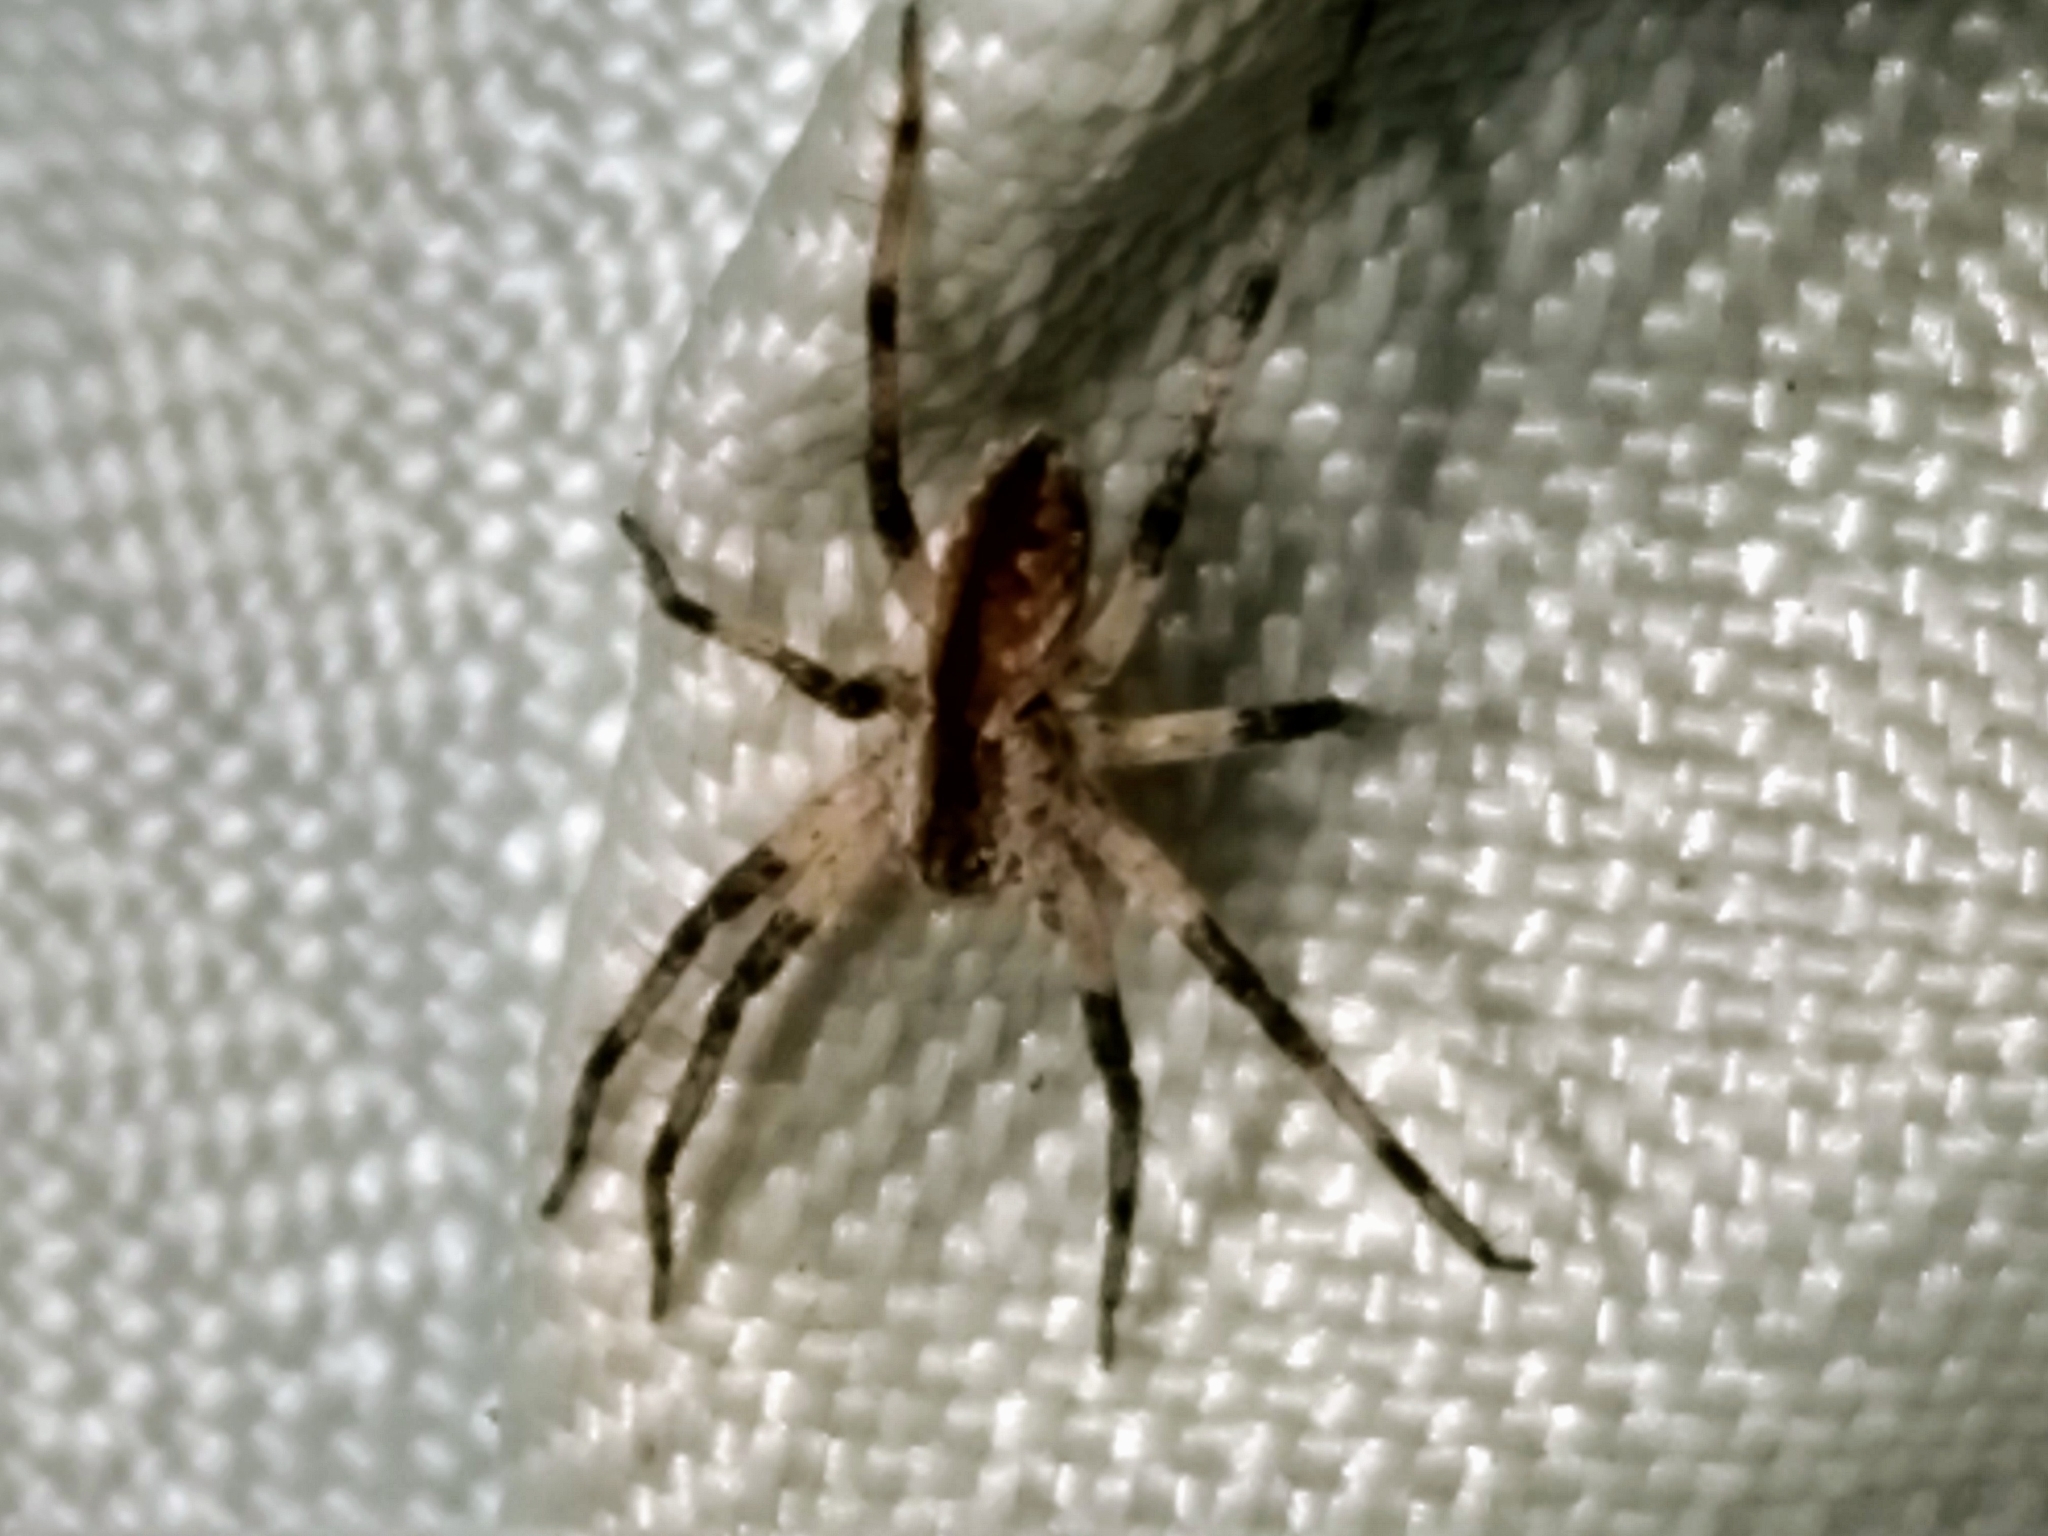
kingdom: Animalia
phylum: Arthropoda
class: Arachnida
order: Araneae
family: Pisauridae
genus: Pisaurina
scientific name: Pisaurina mira
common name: American nursery web spider
